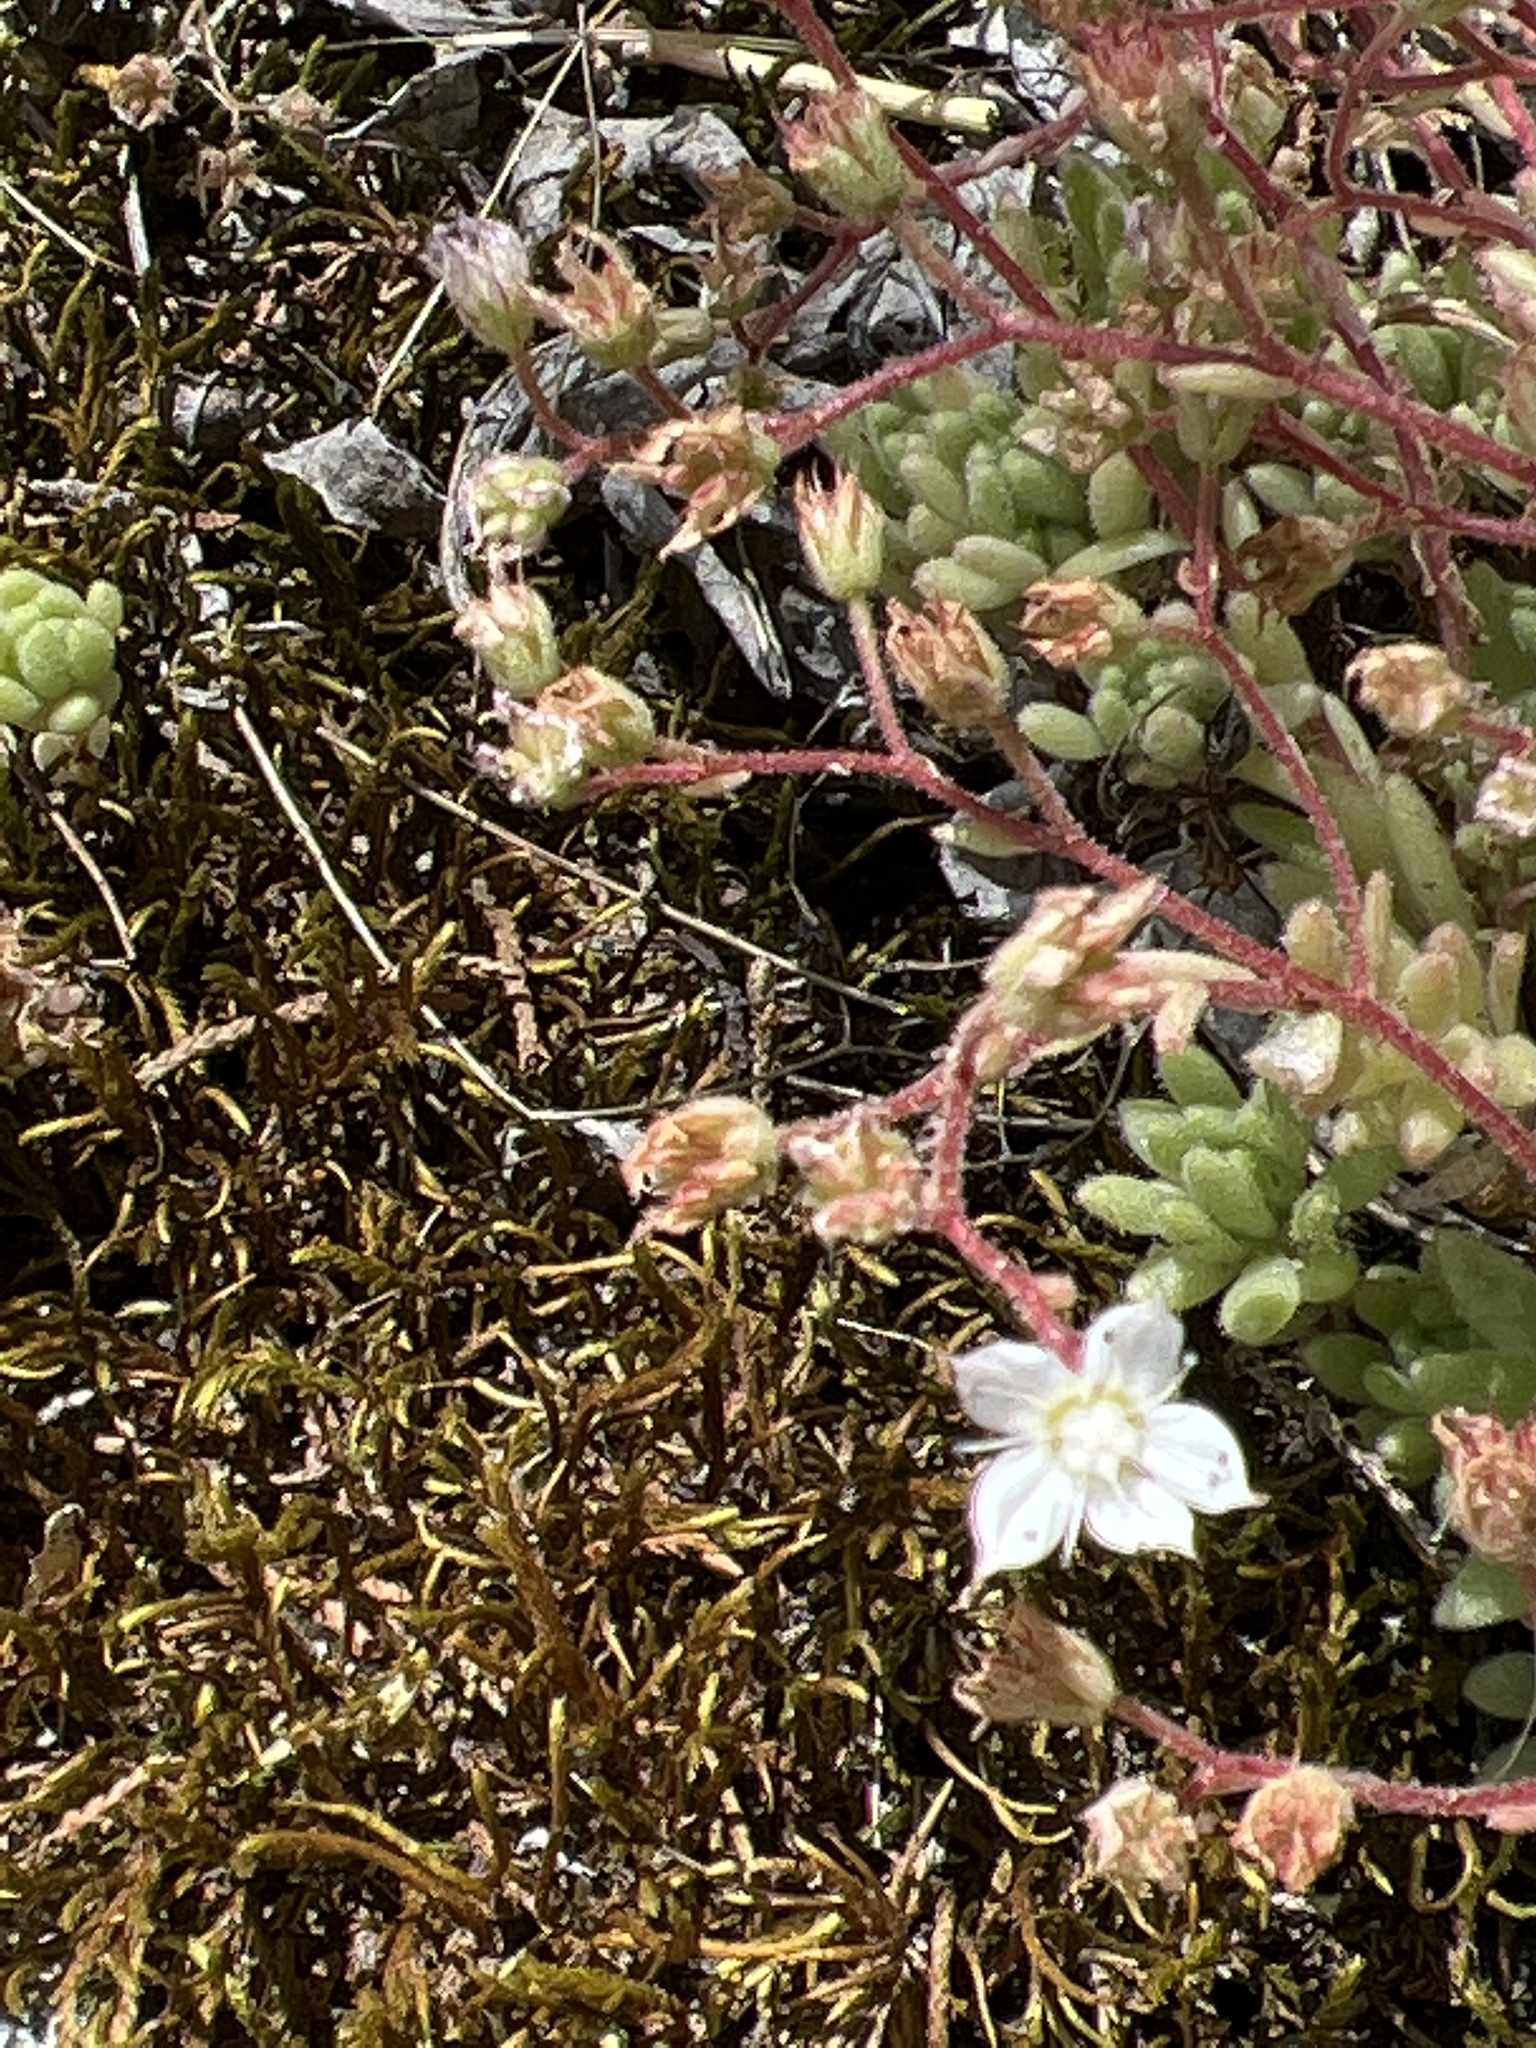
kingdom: Plantae
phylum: Tracheophyta
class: Magnoliopsida
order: Saxifragales
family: Crassulaceae
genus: Sedum
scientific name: Sedum hirsutum
